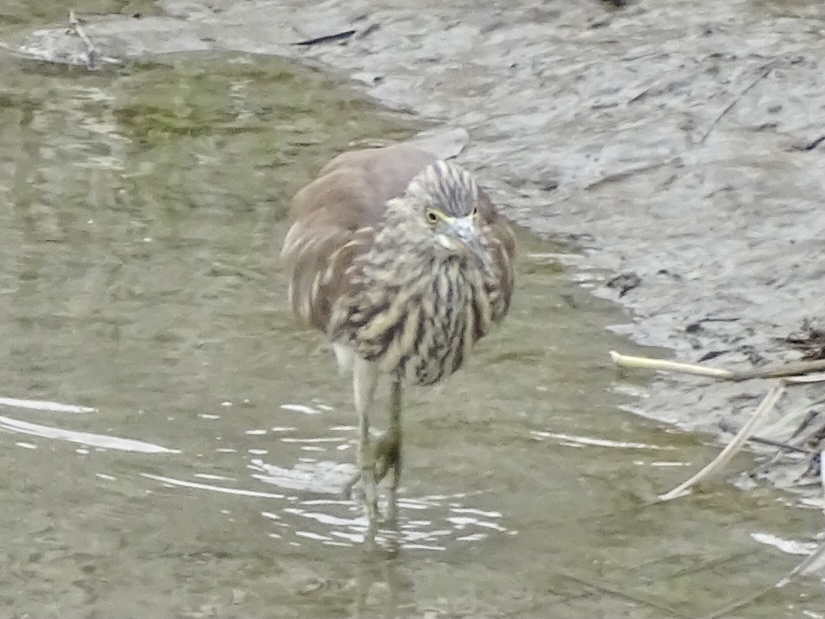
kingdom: Animalia
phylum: Chordata
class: Aves
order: Pelecaniformes
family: Ardeidae
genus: Ardeola
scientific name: Ardeola bacchus
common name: Chinese pond heron
